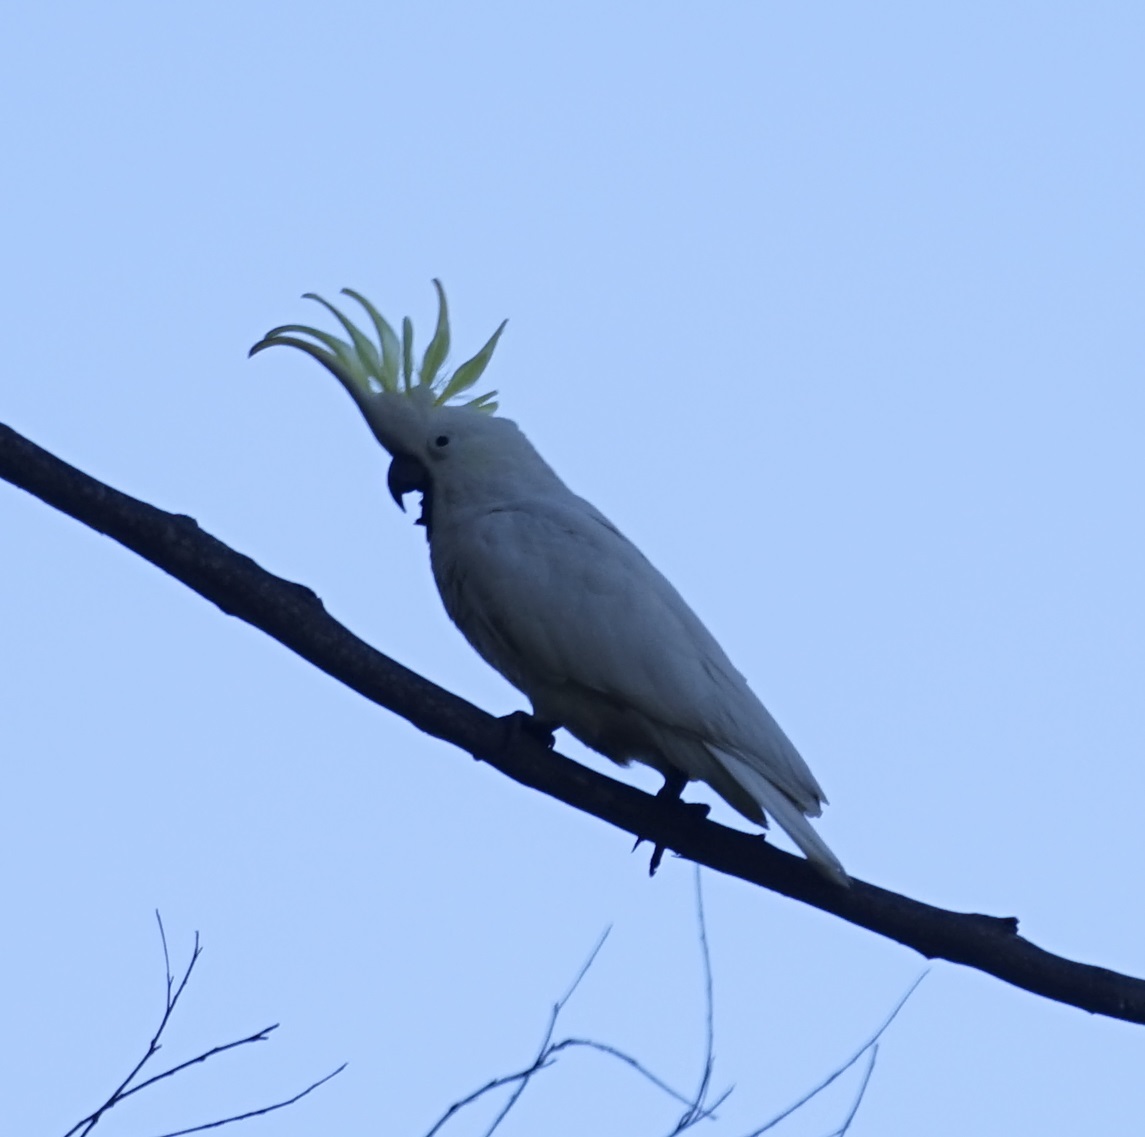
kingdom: Animalia
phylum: Chordata
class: Aves
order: Psittaciformes
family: Psittacidae
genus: Cacatua
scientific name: Cacatua galerita
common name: Sulphur-crested cockatoo
